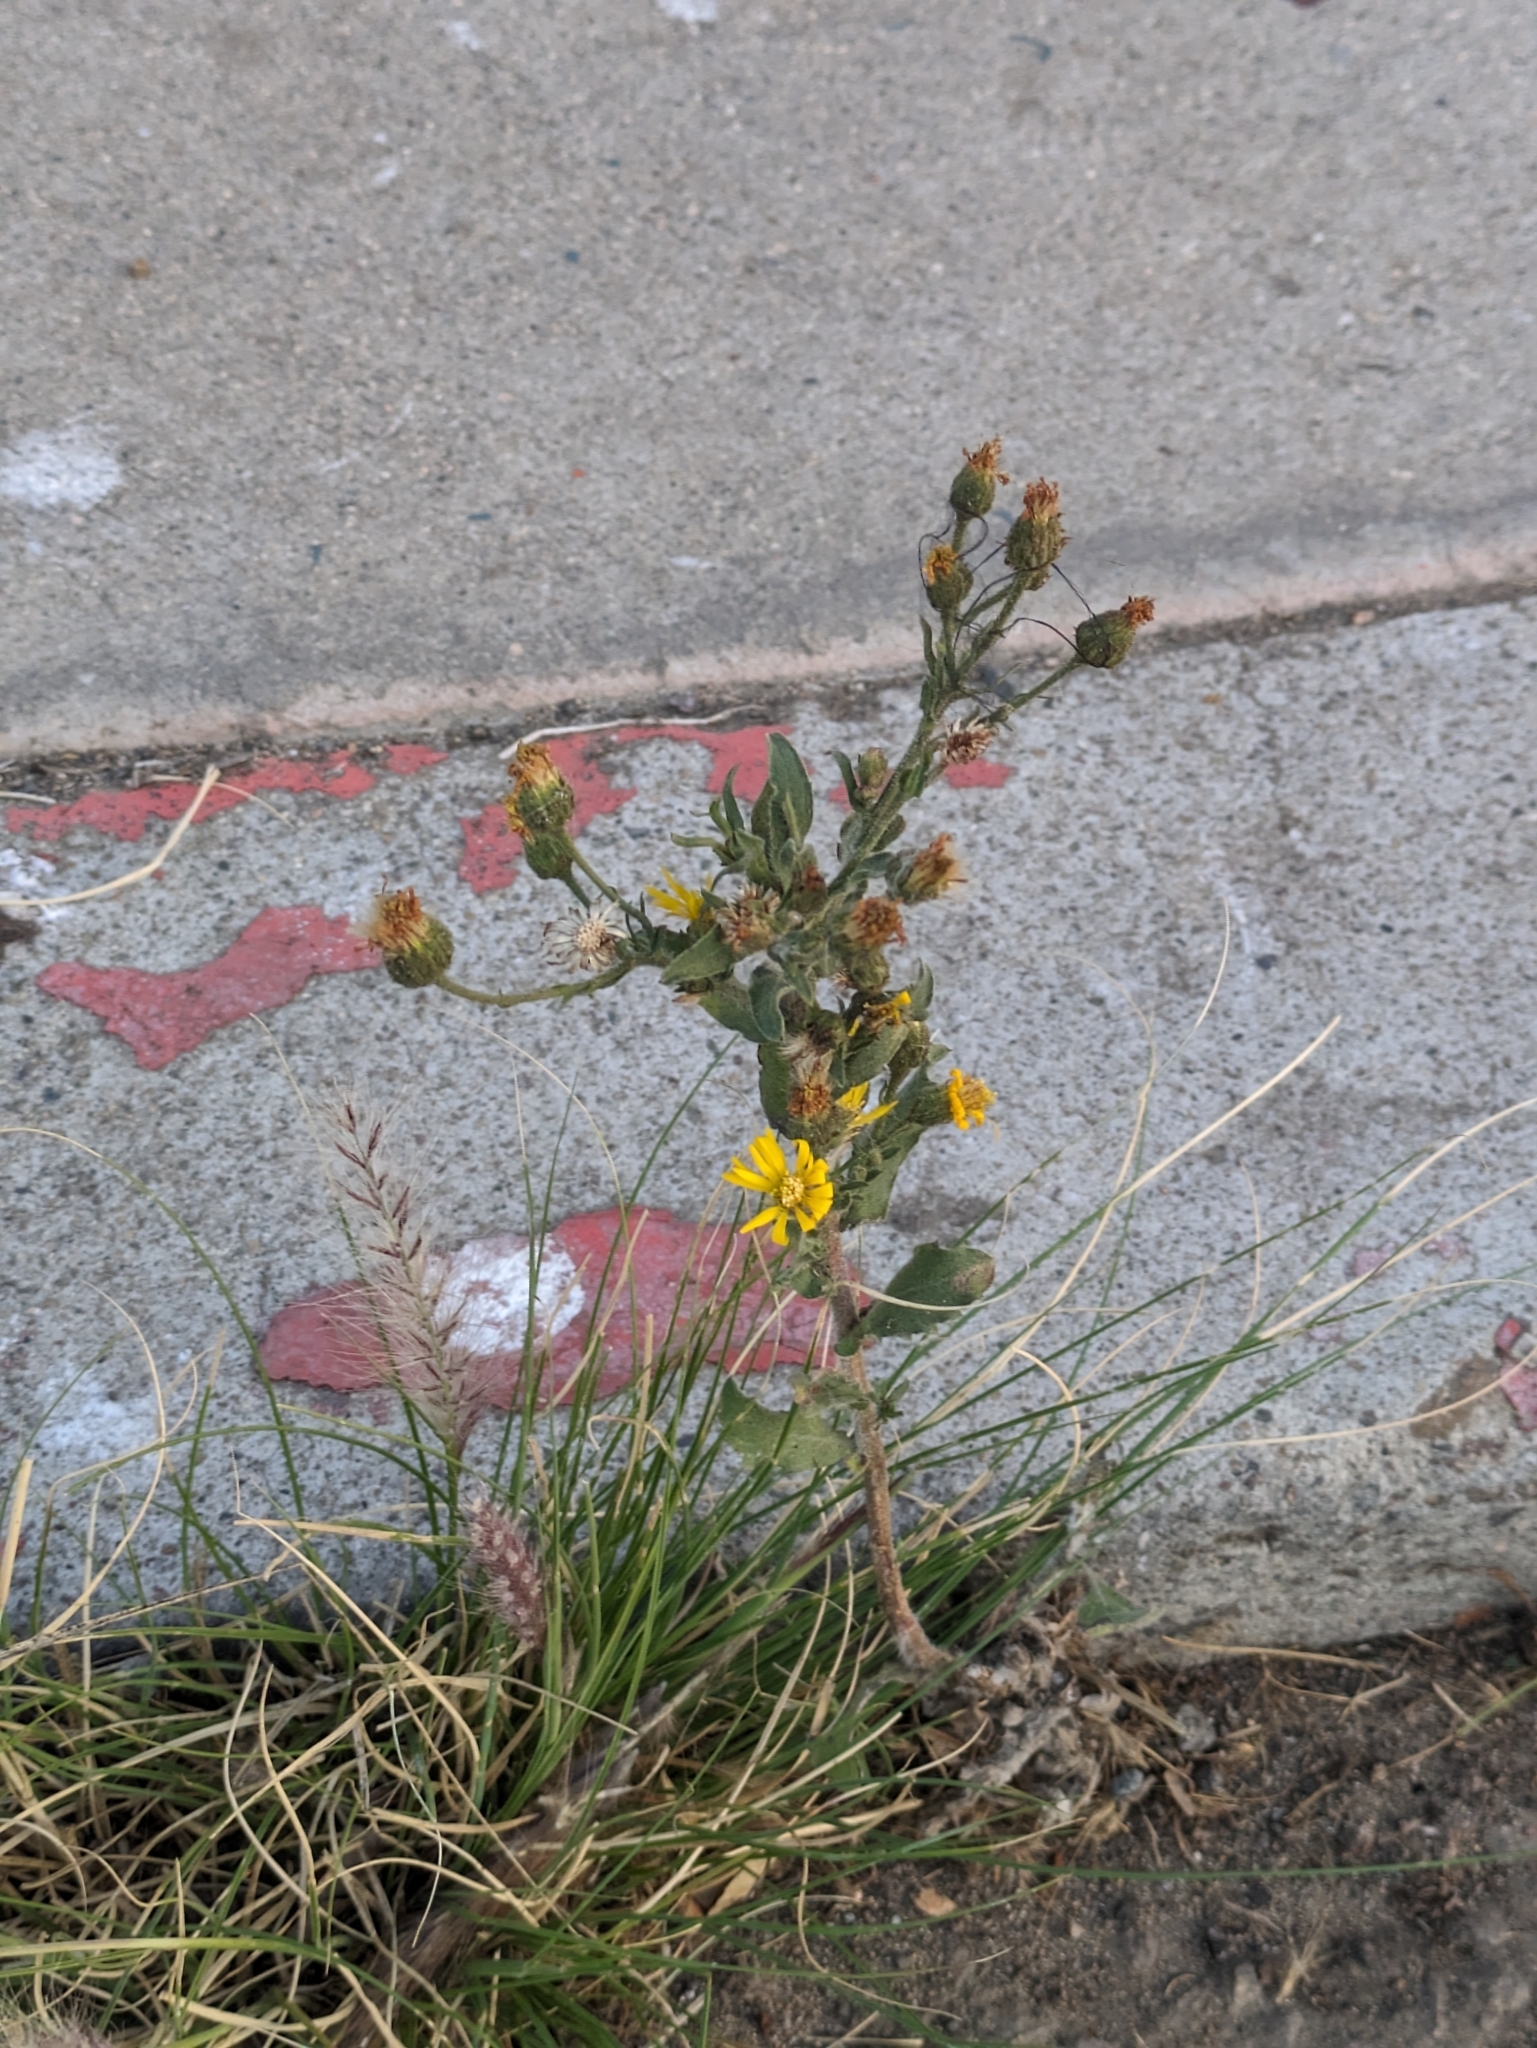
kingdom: Plantae
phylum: Tracheophyta
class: Magnoliopsida
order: Asterales
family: Asteraceae
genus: Heterotheca
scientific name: Heterotheca grandiflora
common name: Telegraphweed
